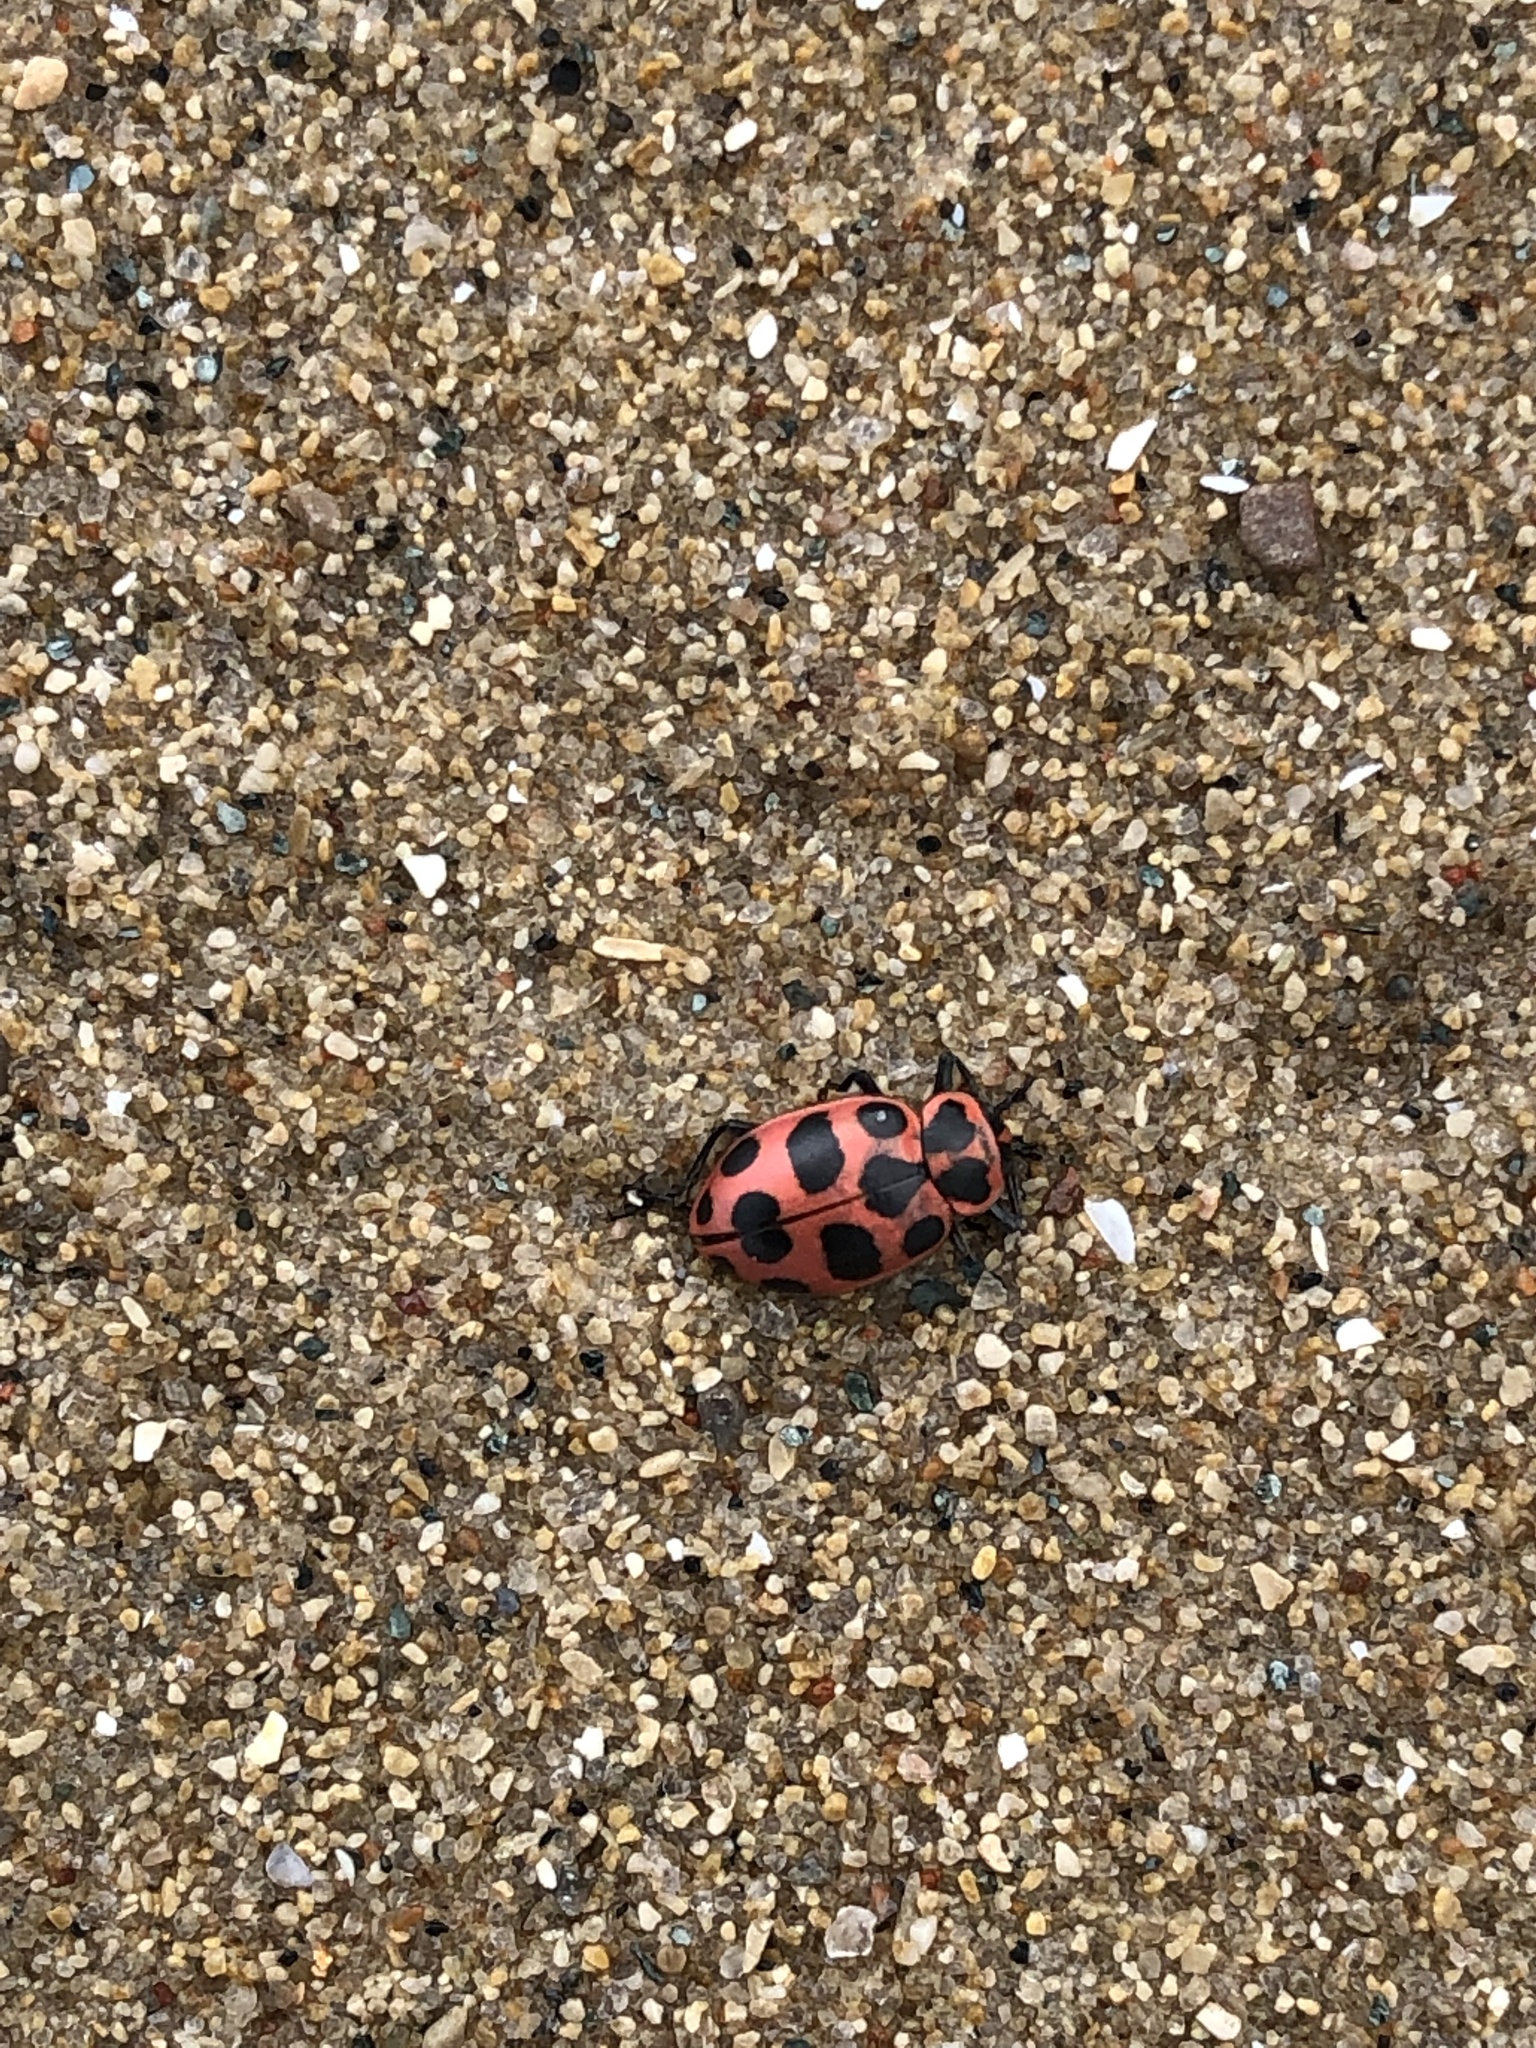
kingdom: Animalia
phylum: Arthropoda
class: Insecta
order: Coleoptera
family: Coccinellidae
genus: Coleomegilla
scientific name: Coleomegilla maculata
